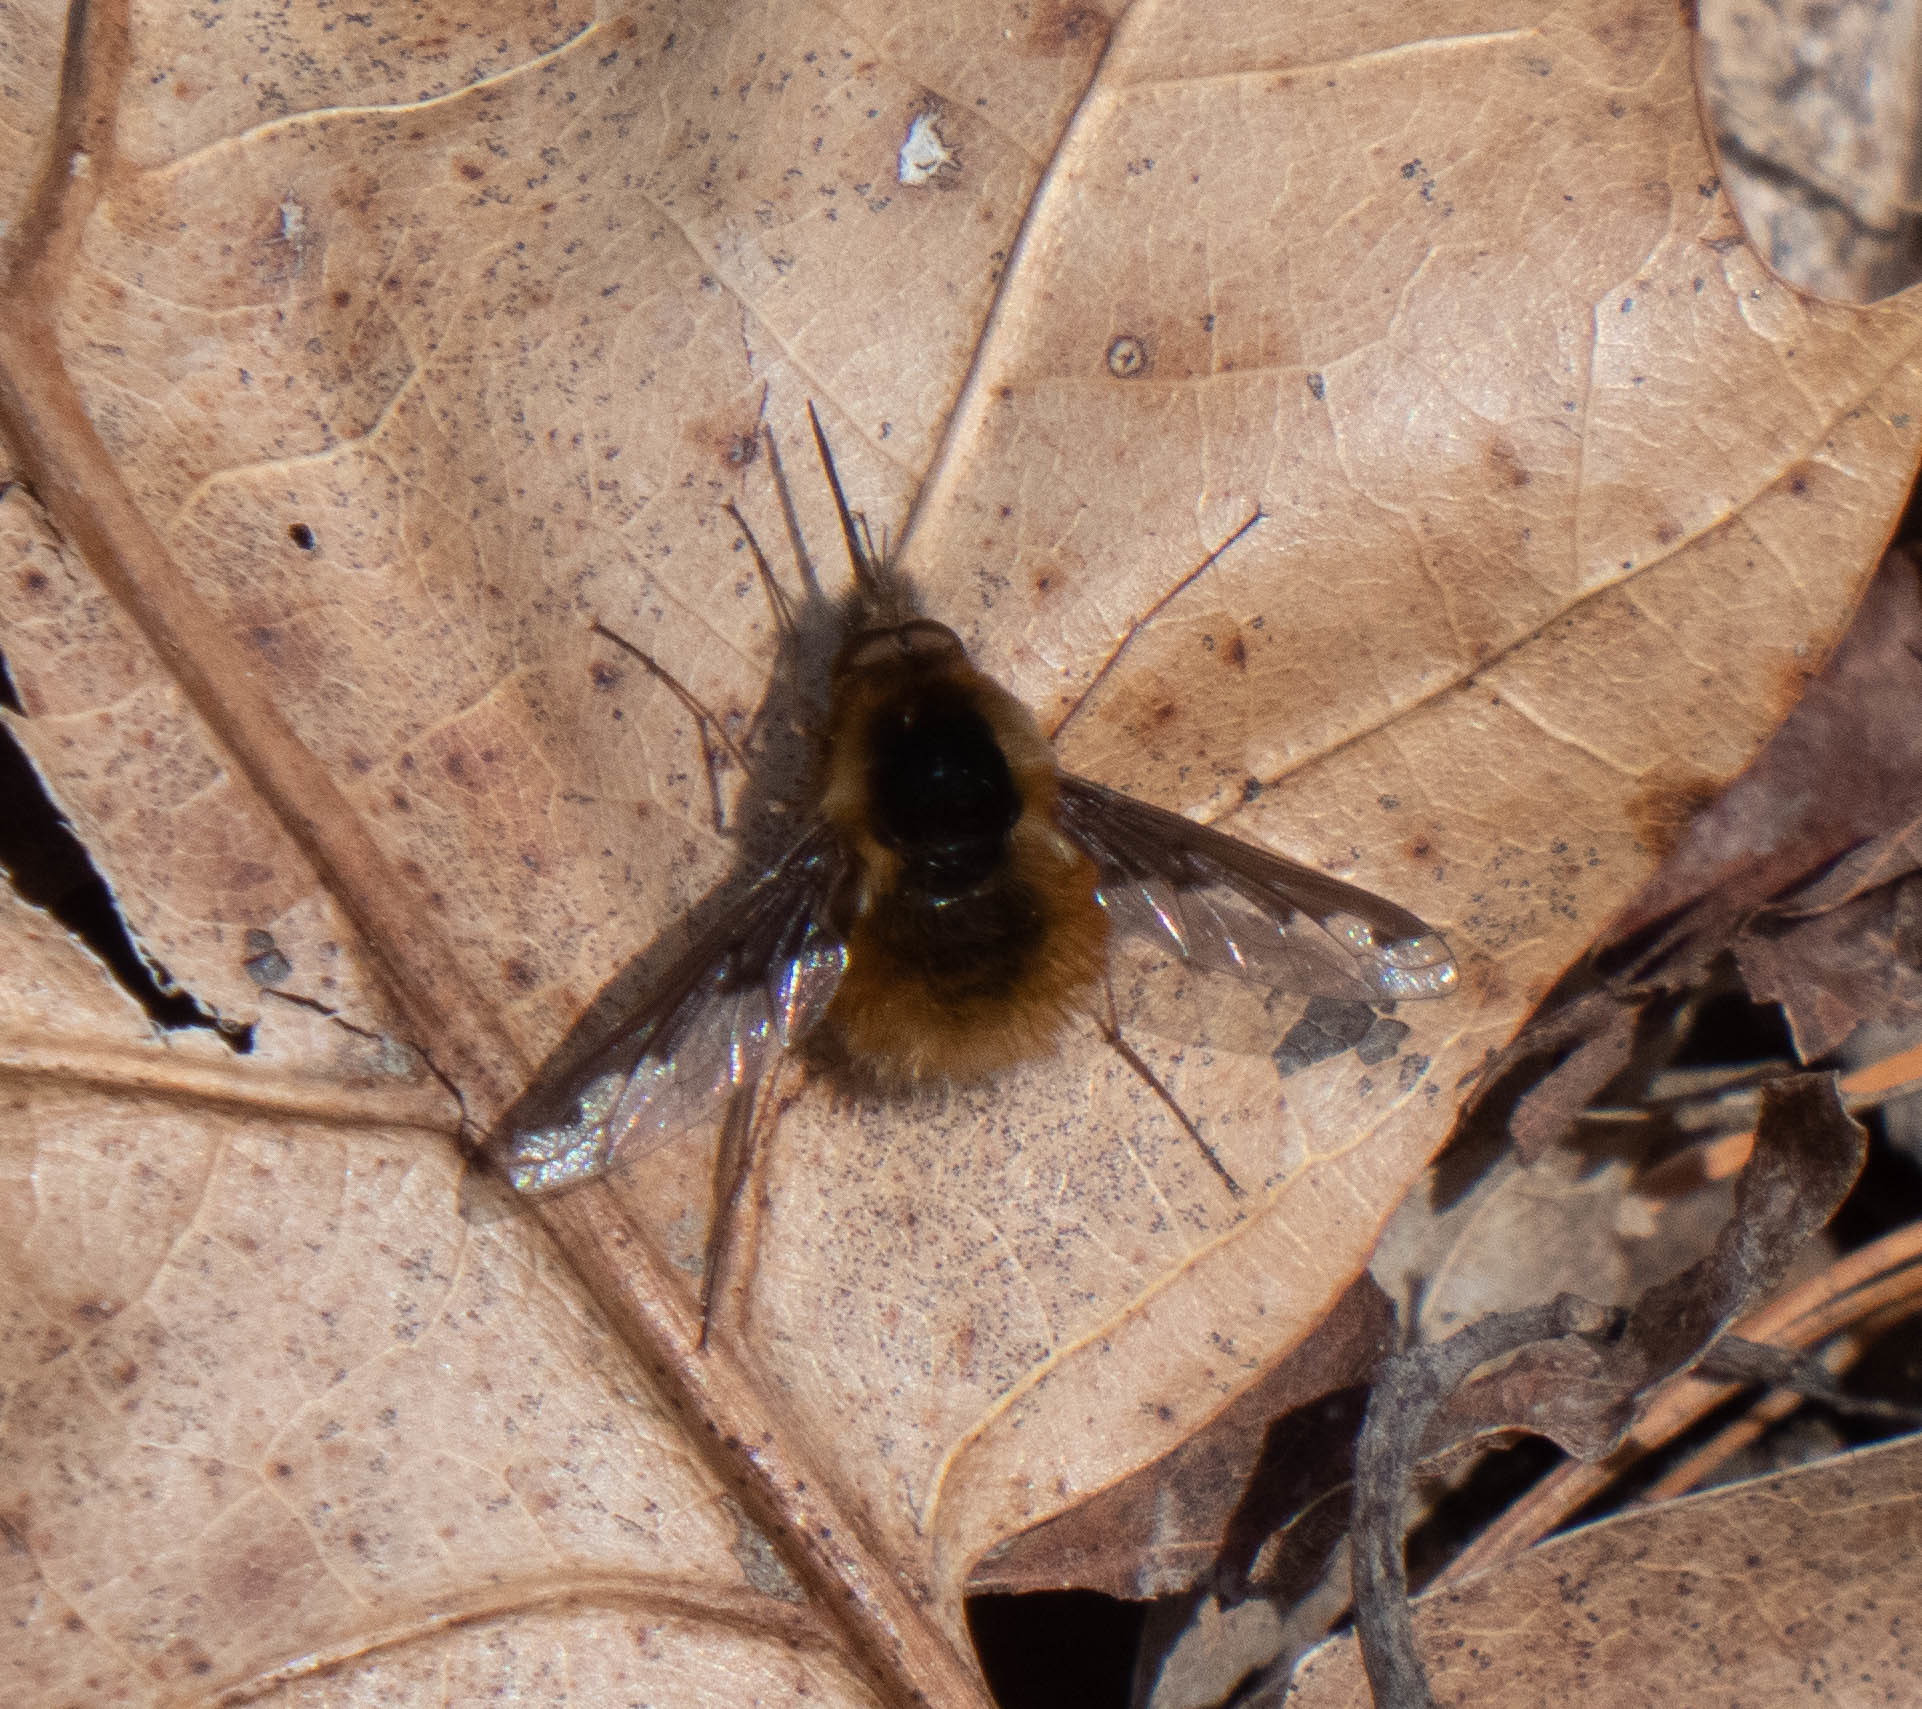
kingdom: Animalia
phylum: Arthropoda
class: Insecta
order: Diptera
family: Bombyliidae
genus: Bombylius
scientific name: Bombylius major
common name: Bee fly
